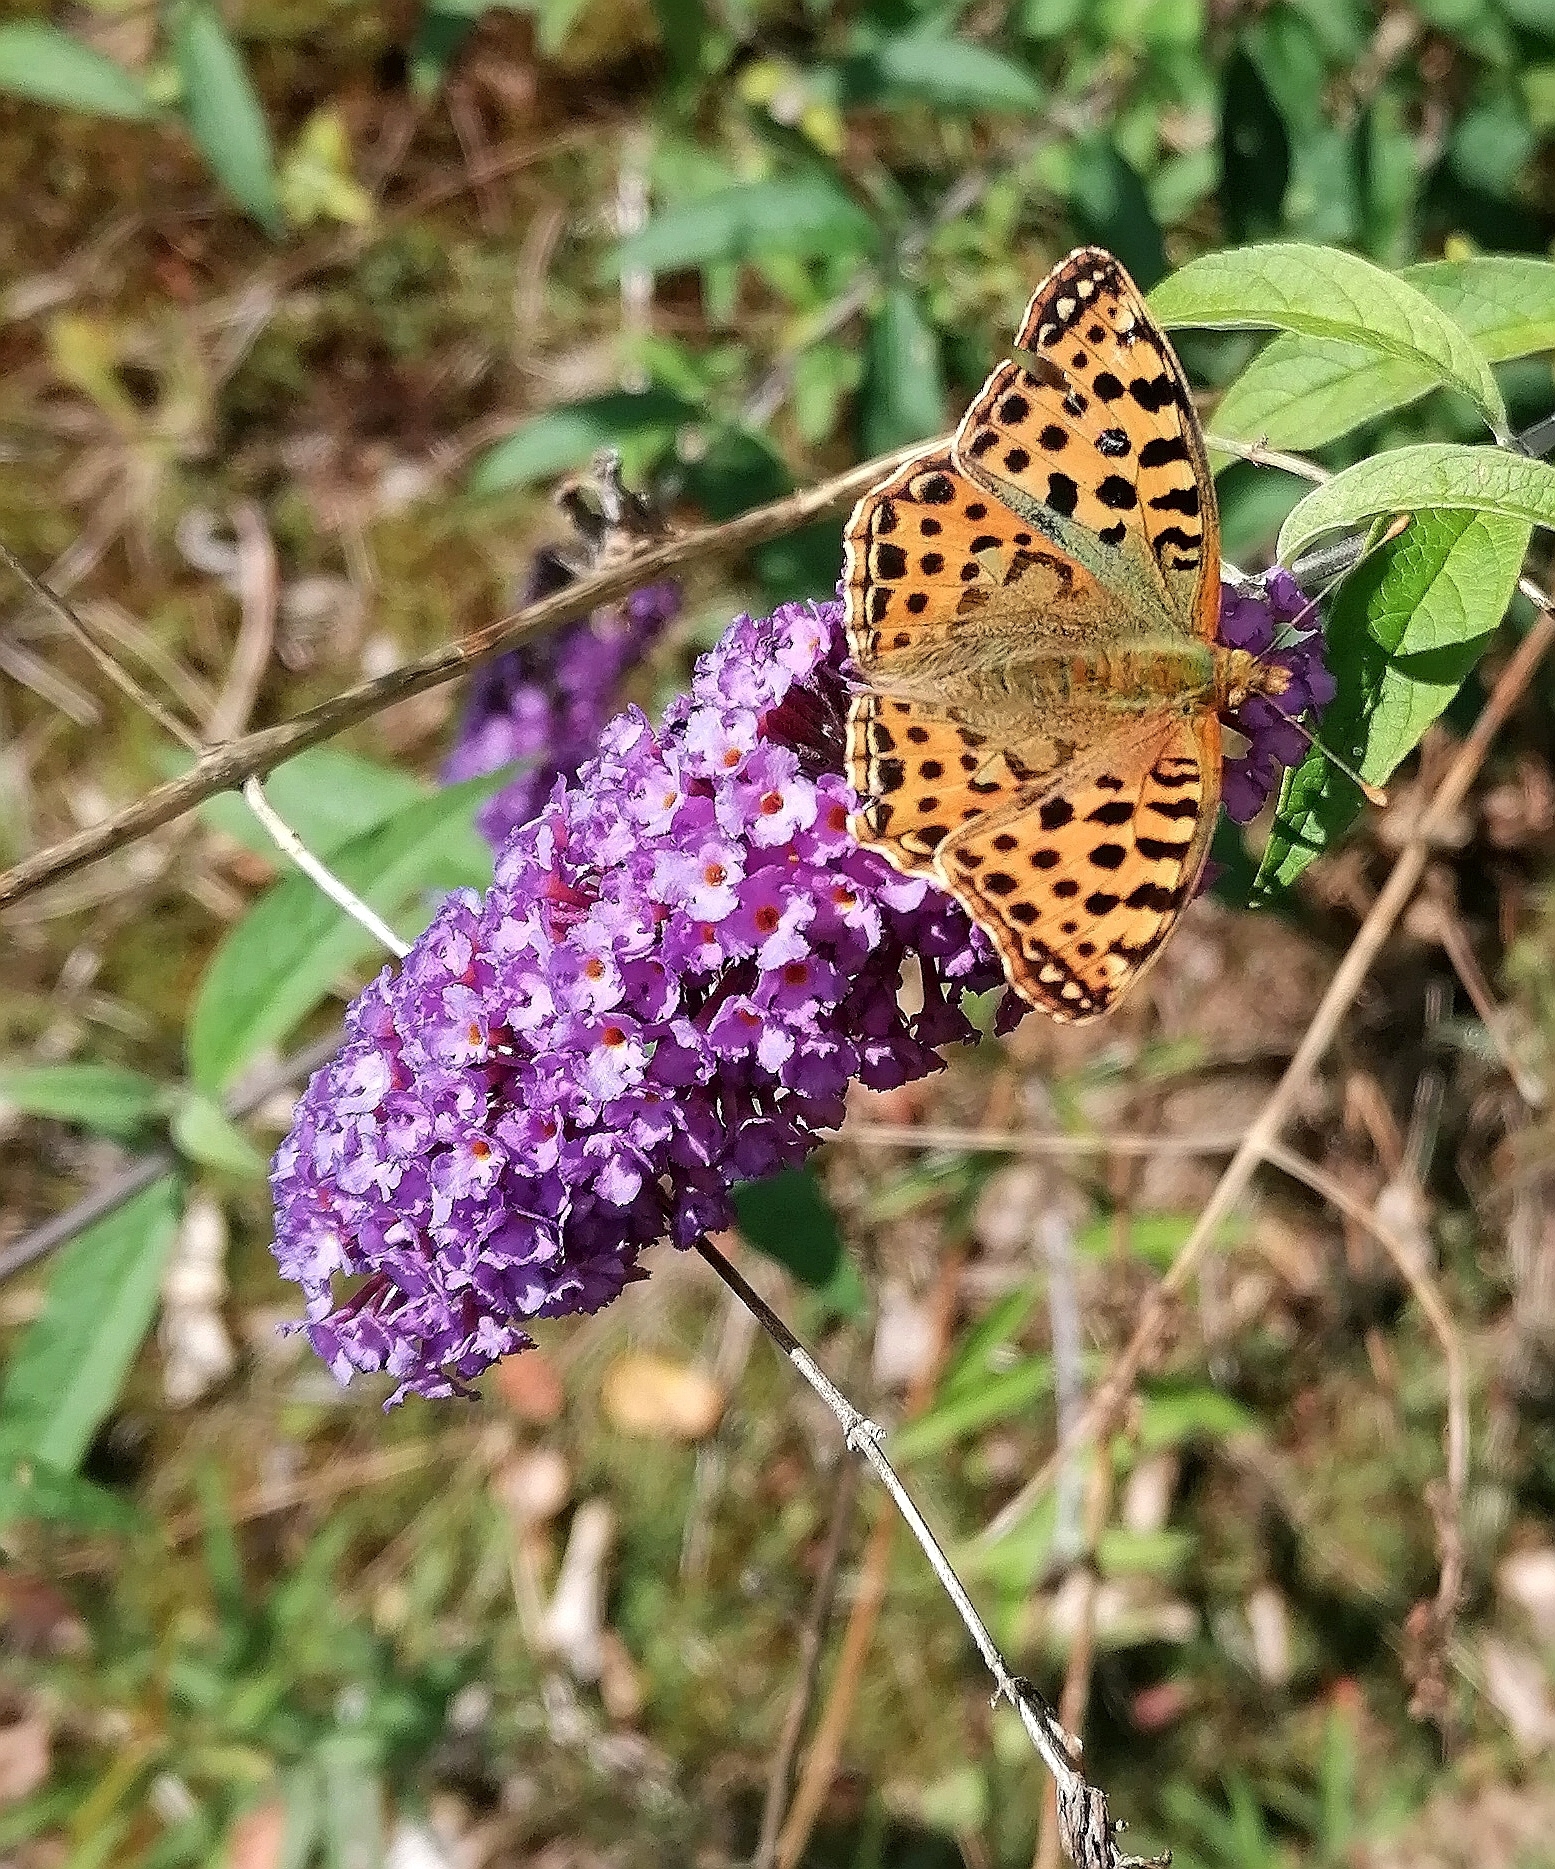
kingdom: Animalia
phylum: Arthropoda
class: Insecta
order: Lepidoptera
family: Nymphalidae
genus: Issoria
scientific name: Issoria lathonia
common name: Queen of spain fritillary
